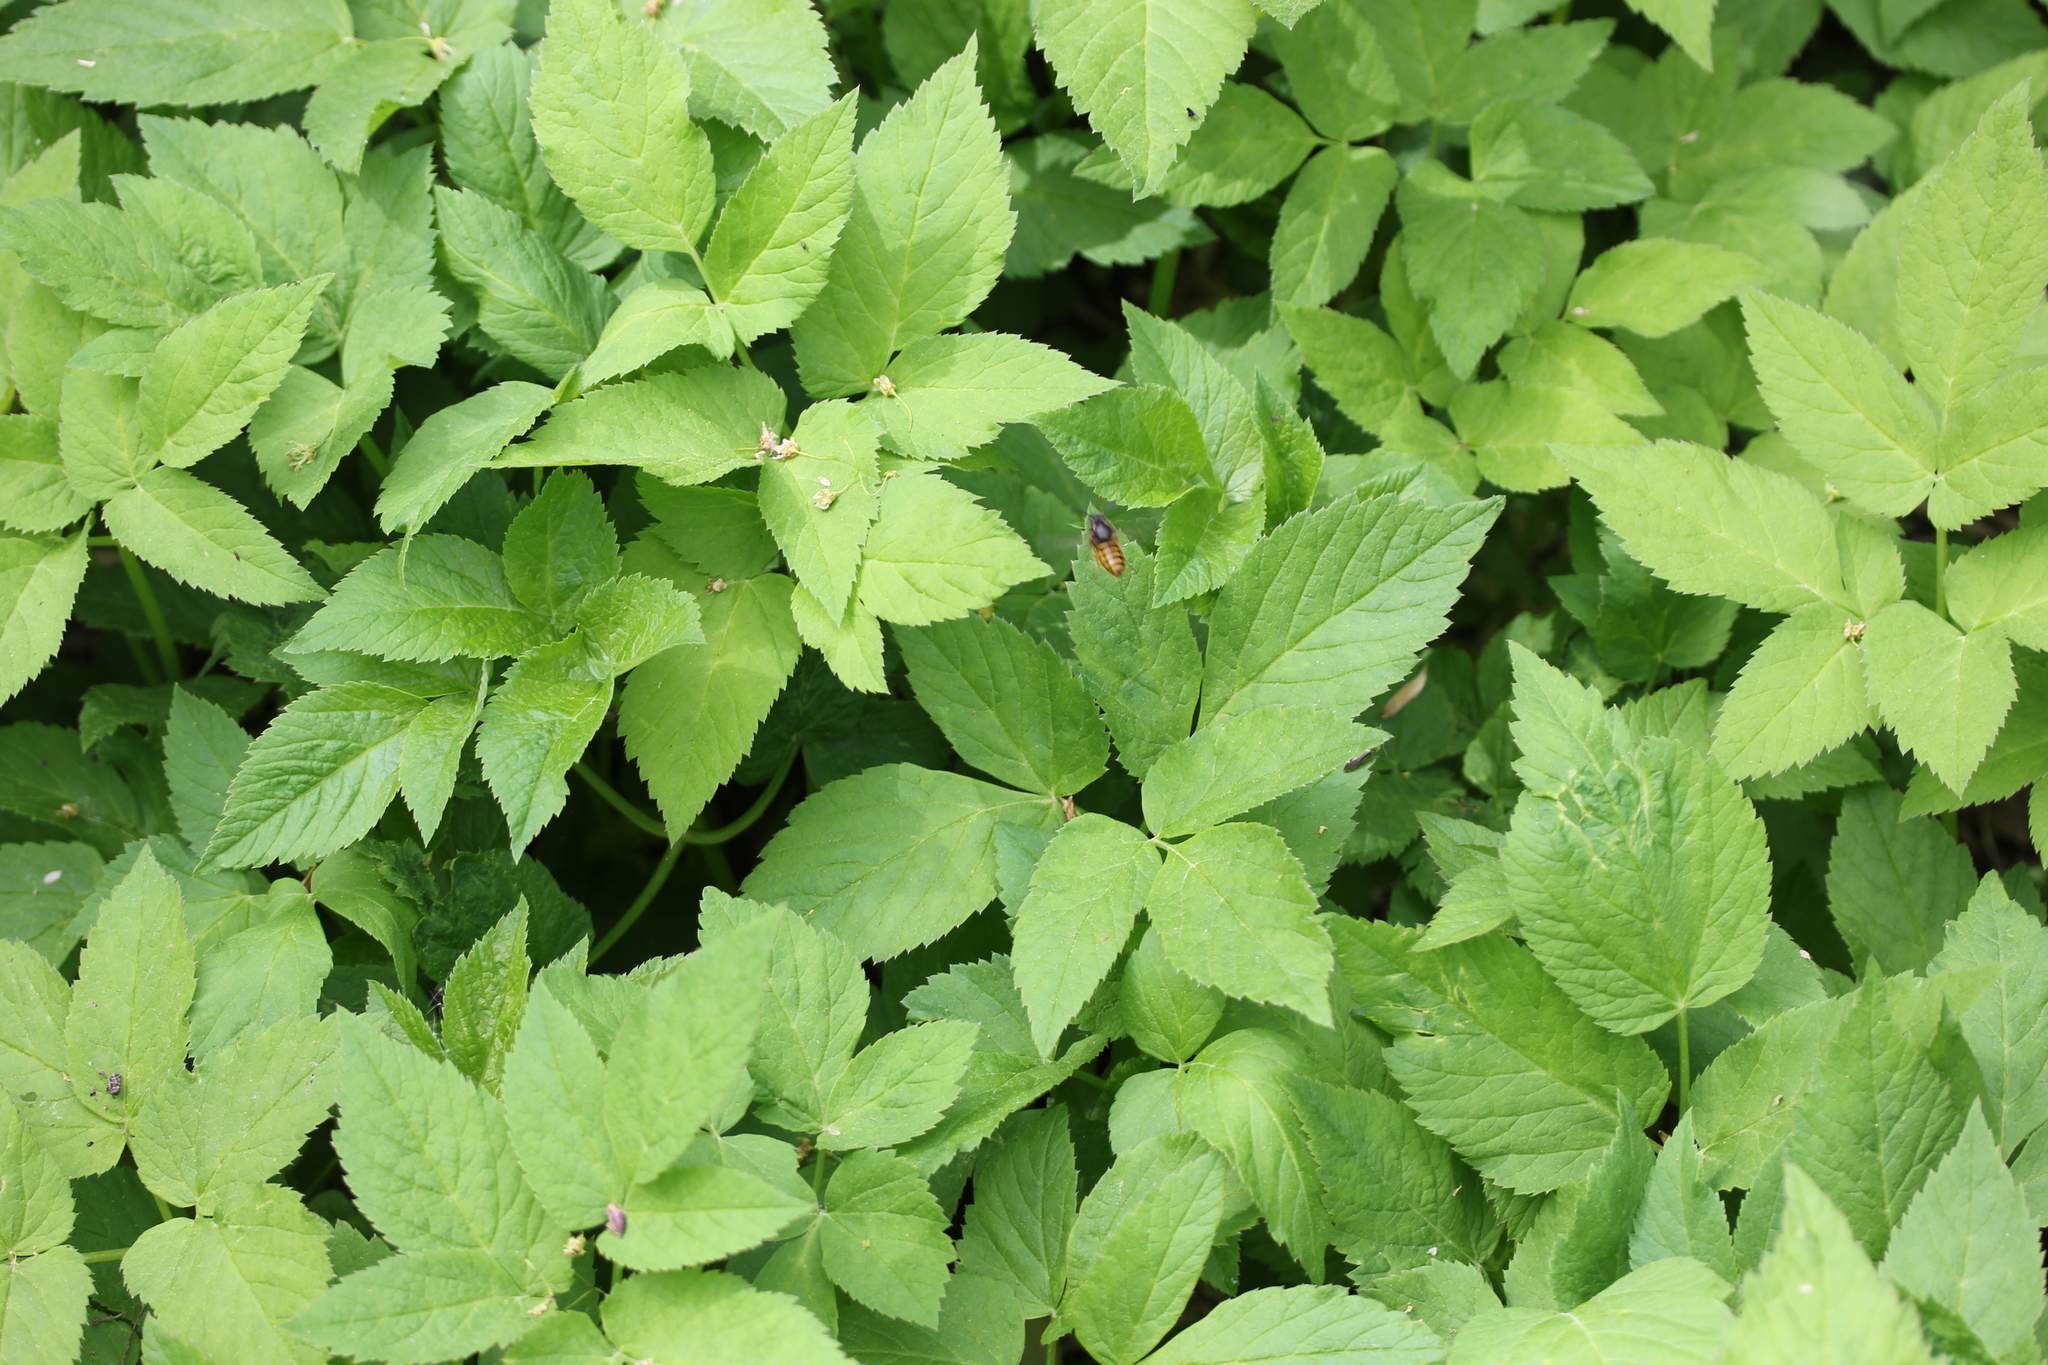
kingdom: Plantae
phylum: Tracheophyta
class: Magnoliopsida
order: Apiales
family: Apiaceae
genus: Aegopodium
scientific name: Aegopodium podagraria
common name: Ground-elder
